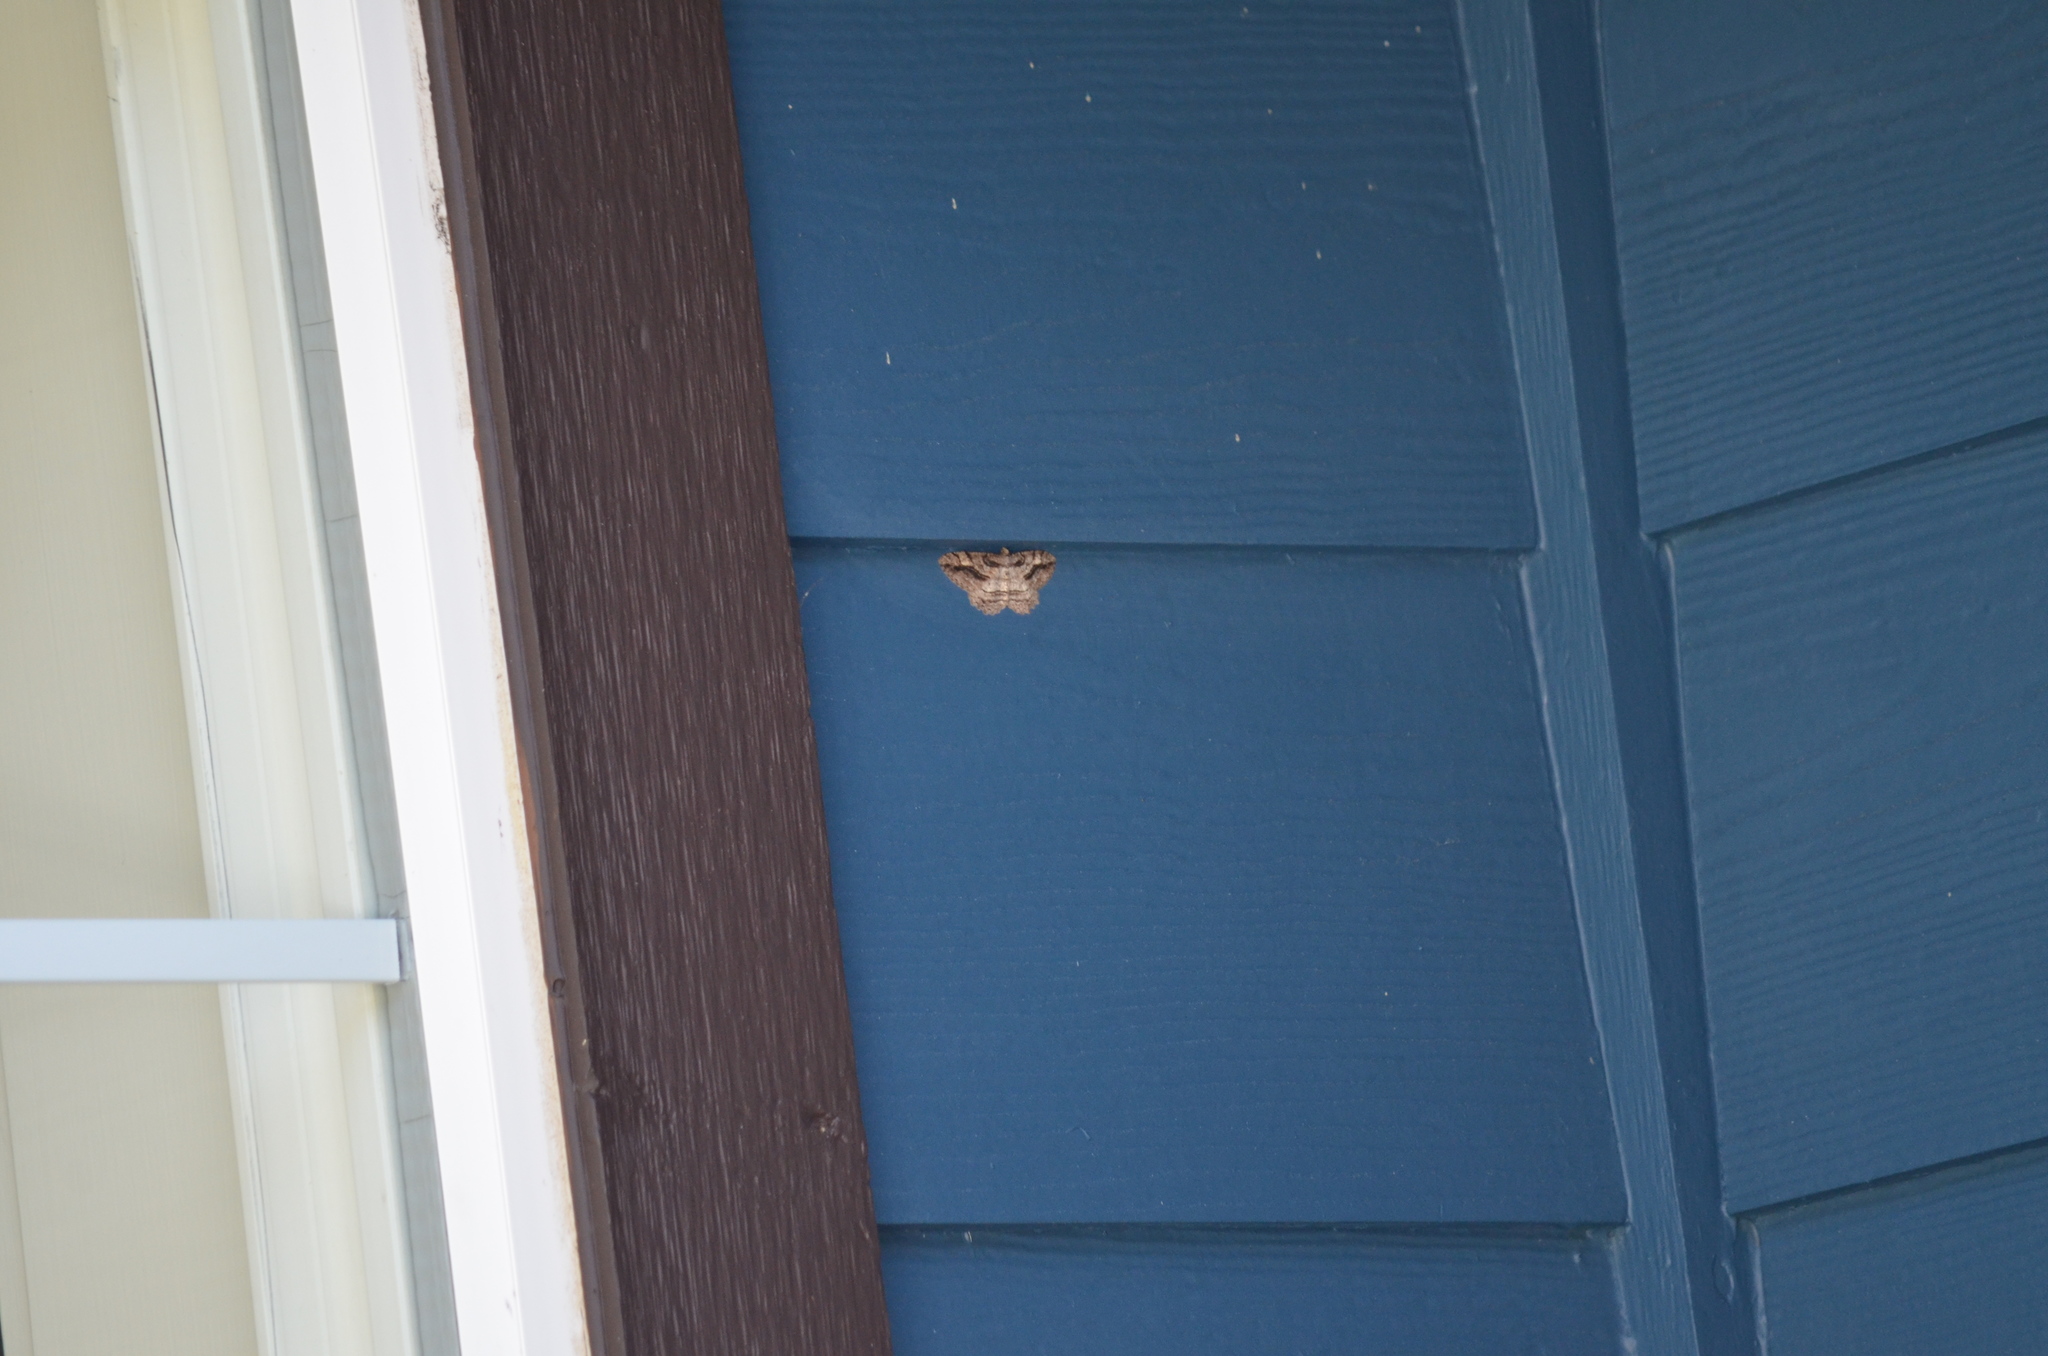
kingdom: Animalia
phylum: Arthropoda
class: Insecta
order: Lepidoptera
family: Geometridae
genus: Neoalcis
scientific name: Neoalcis californiaria
